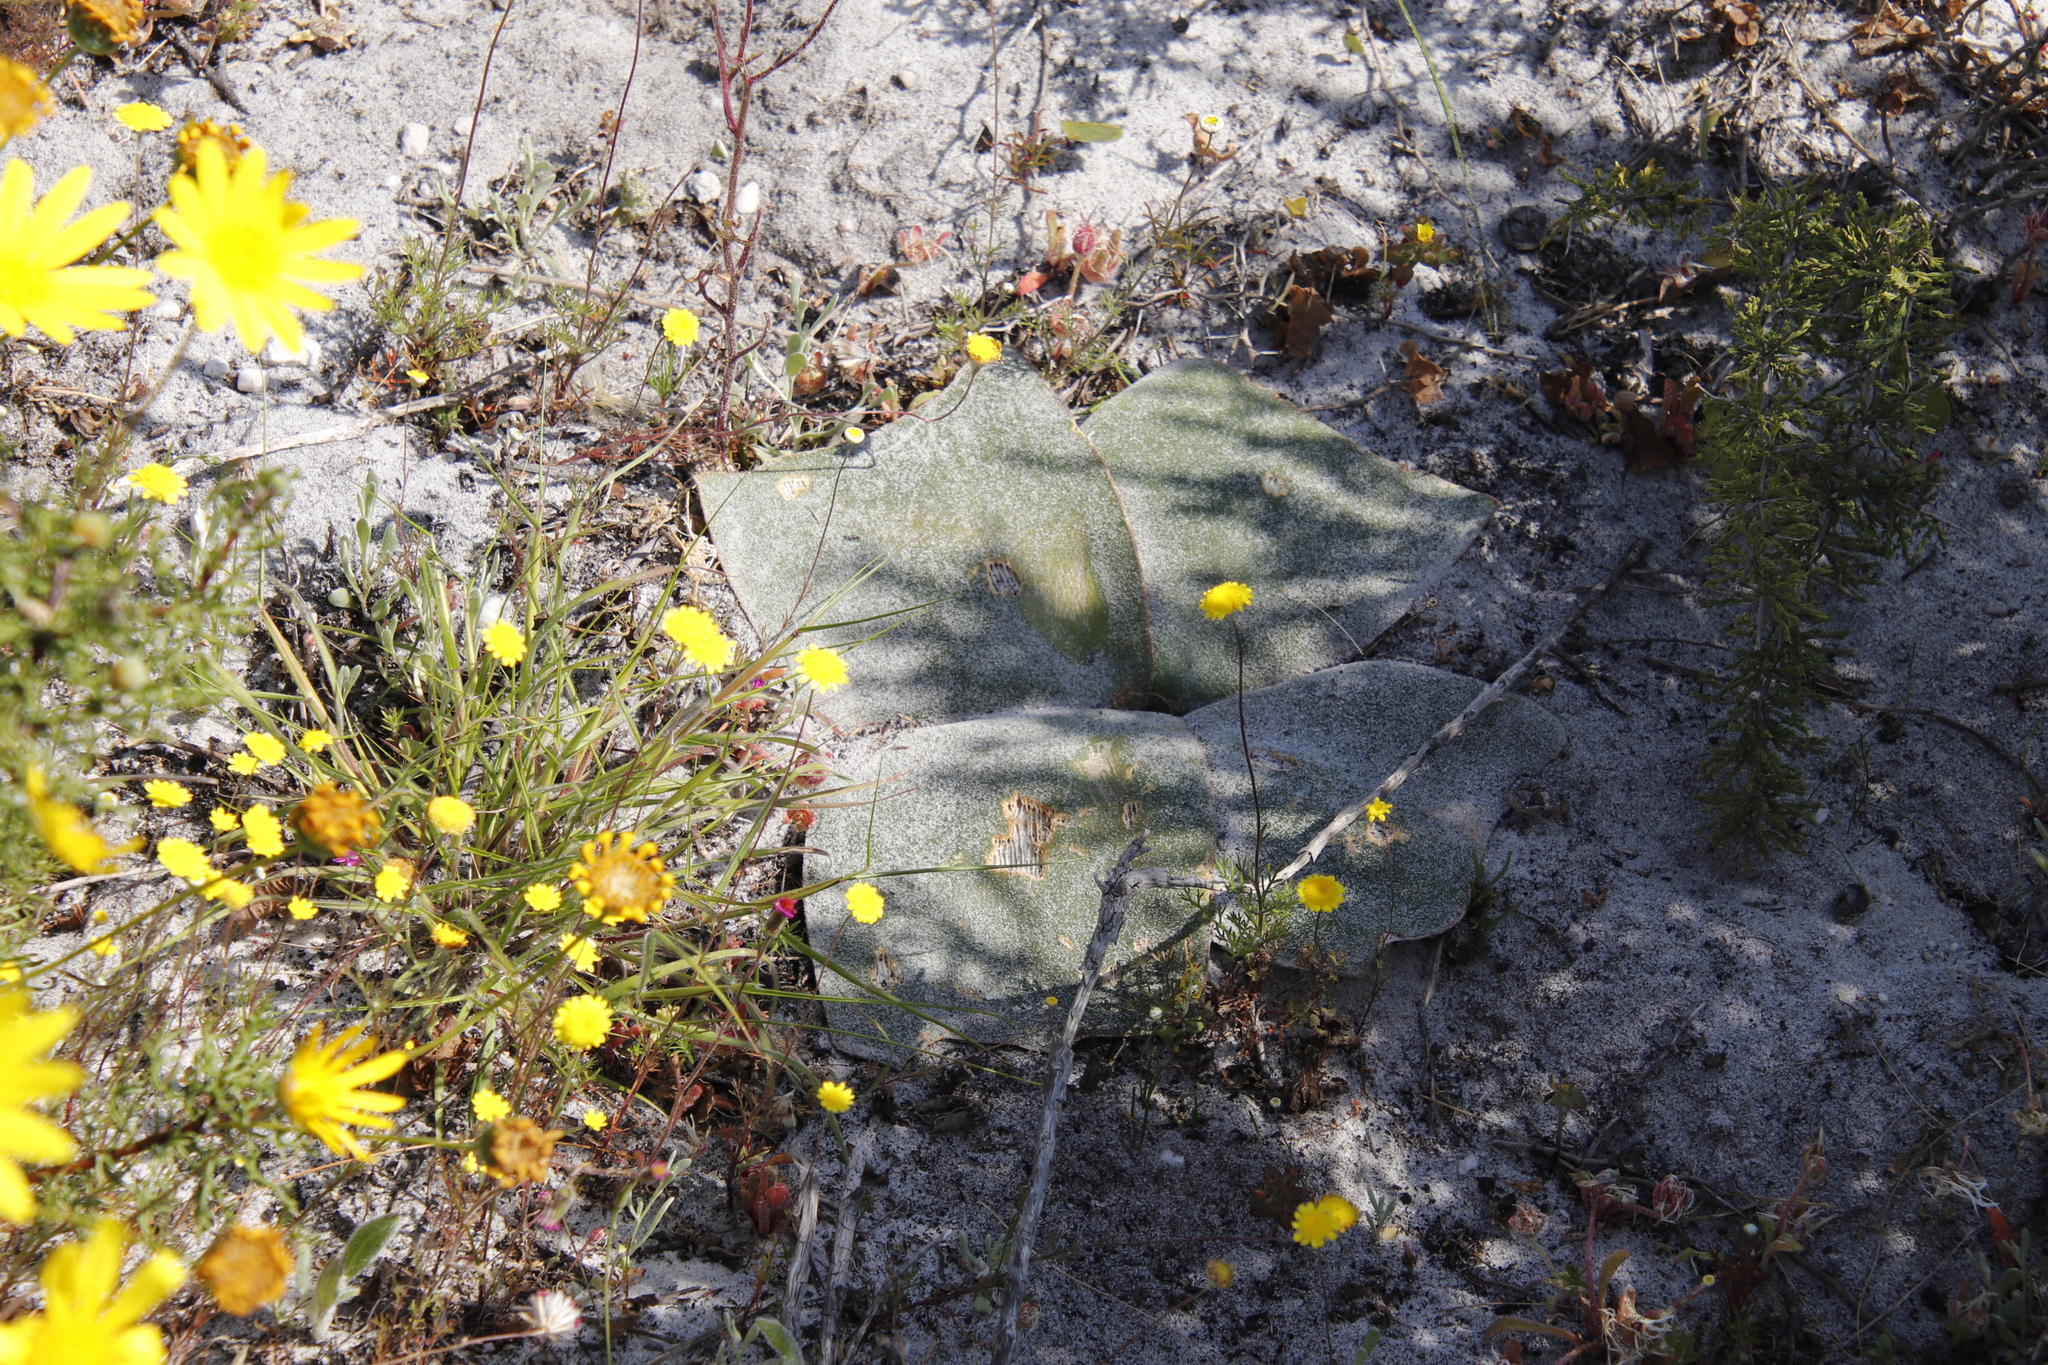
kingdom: Plantae
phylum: Tracheophyta
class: Liliopsida
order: Asparagales
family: Amaryllidaceae
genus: Brunsvigia
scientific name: Brunsvigia orientalis
